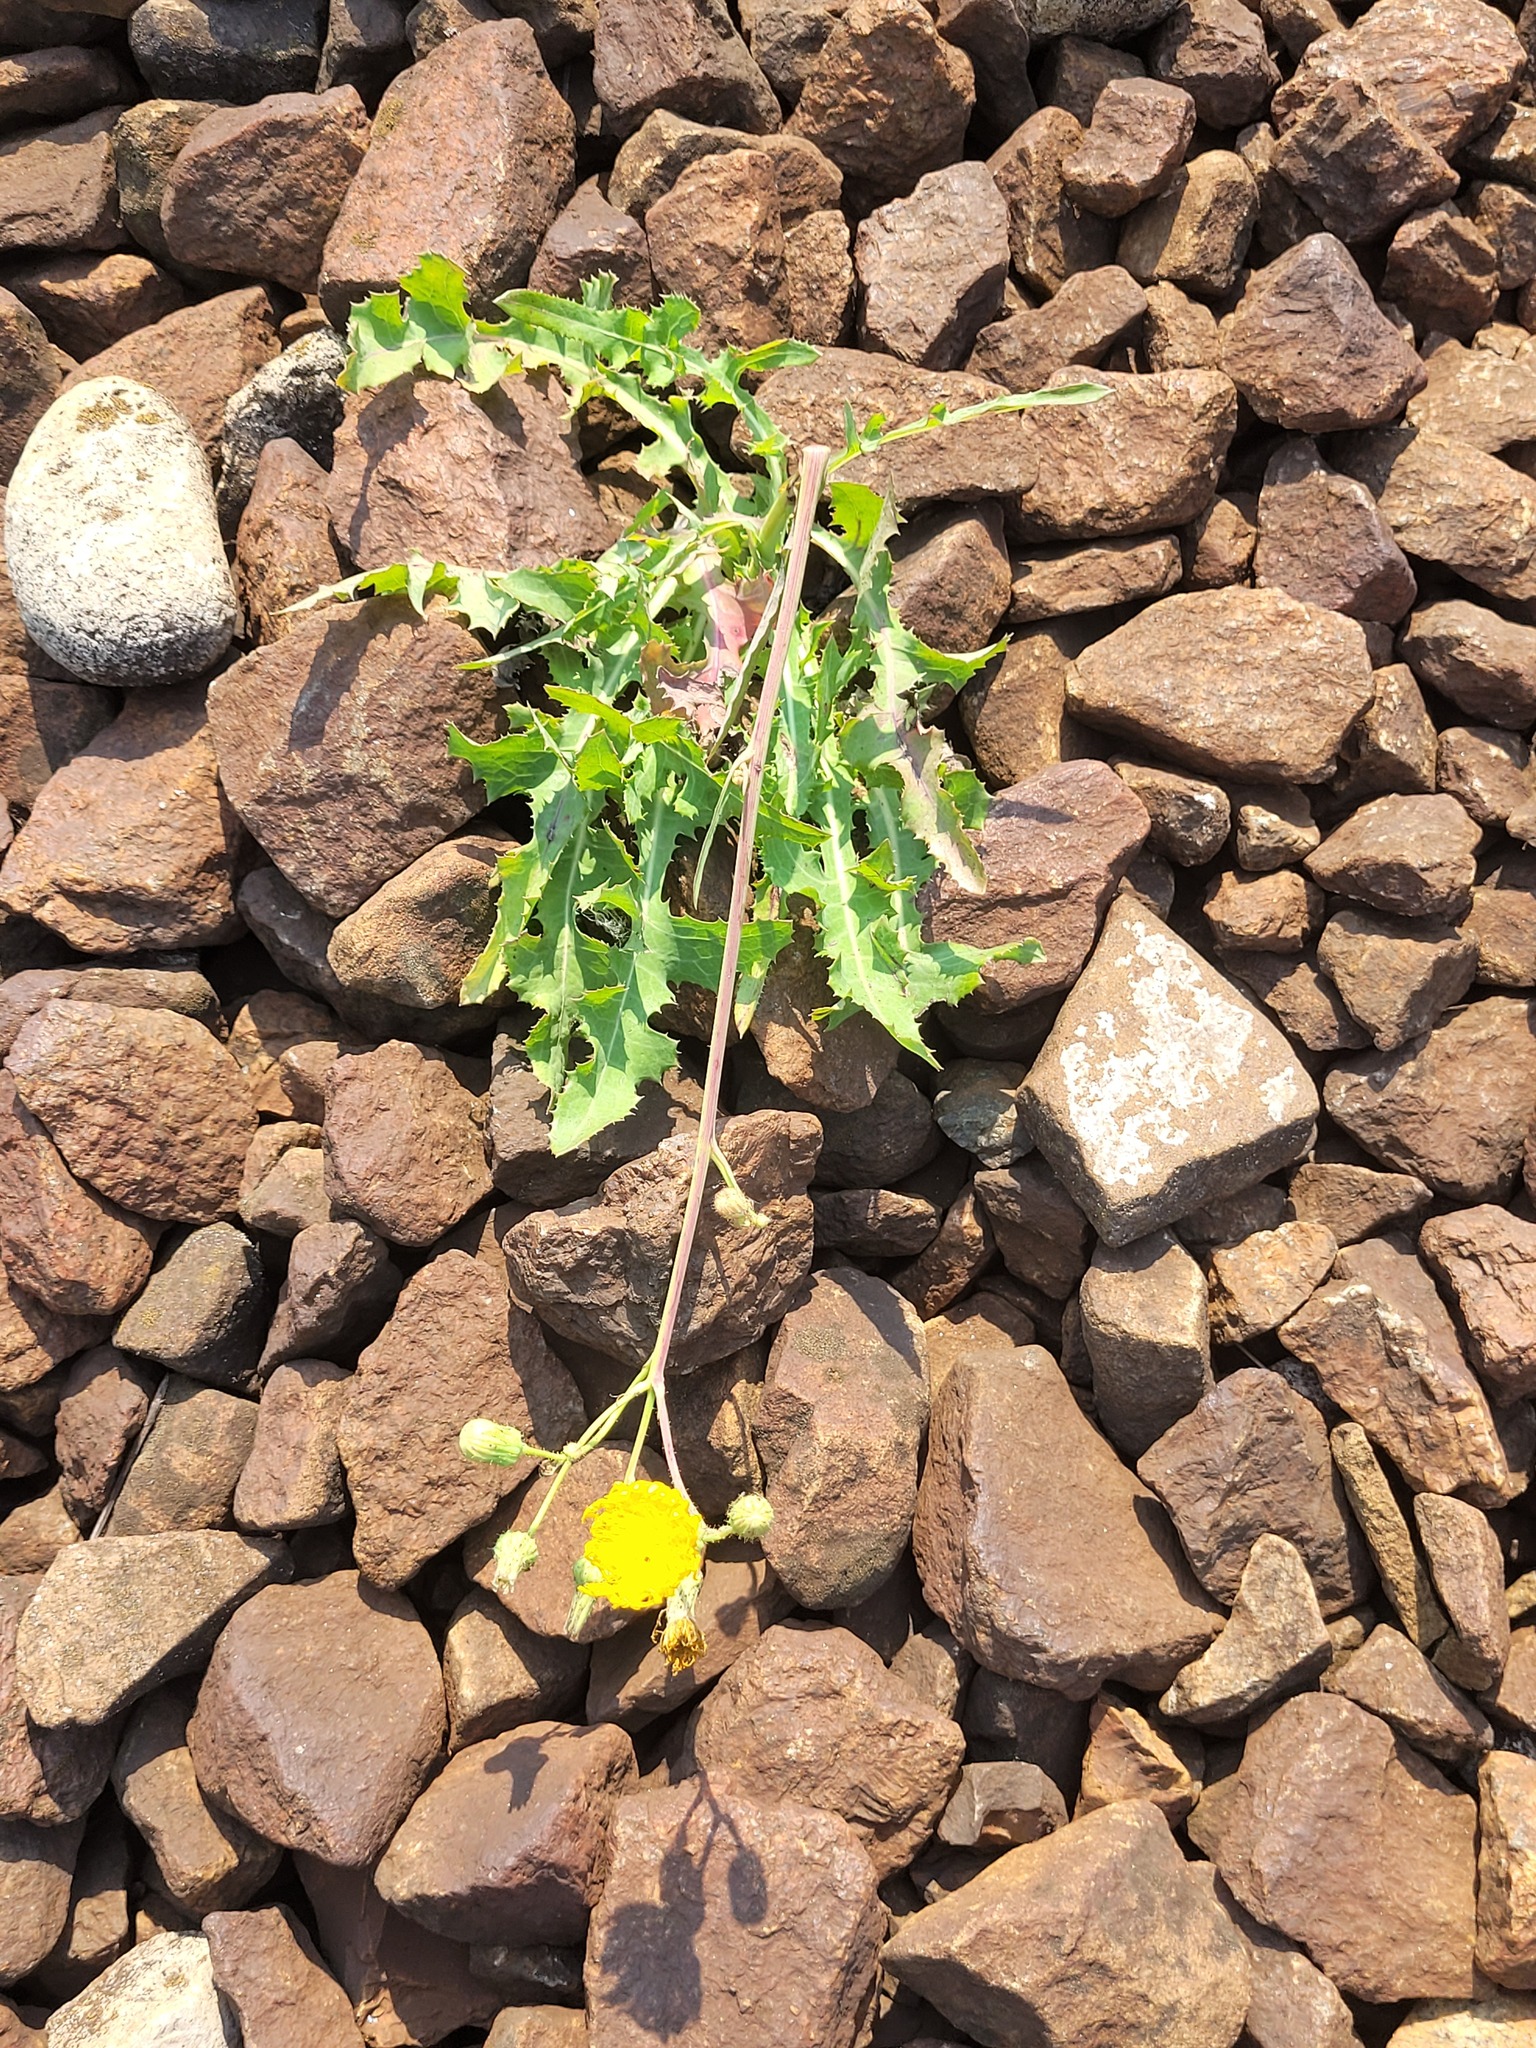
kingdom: Plantae
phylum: Tracheophyta
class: Magnoliopsida
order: Asterales
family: Asteraceae
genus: Sonchus
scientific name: Sonchus arvensis
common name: Perennial sow-thistle
